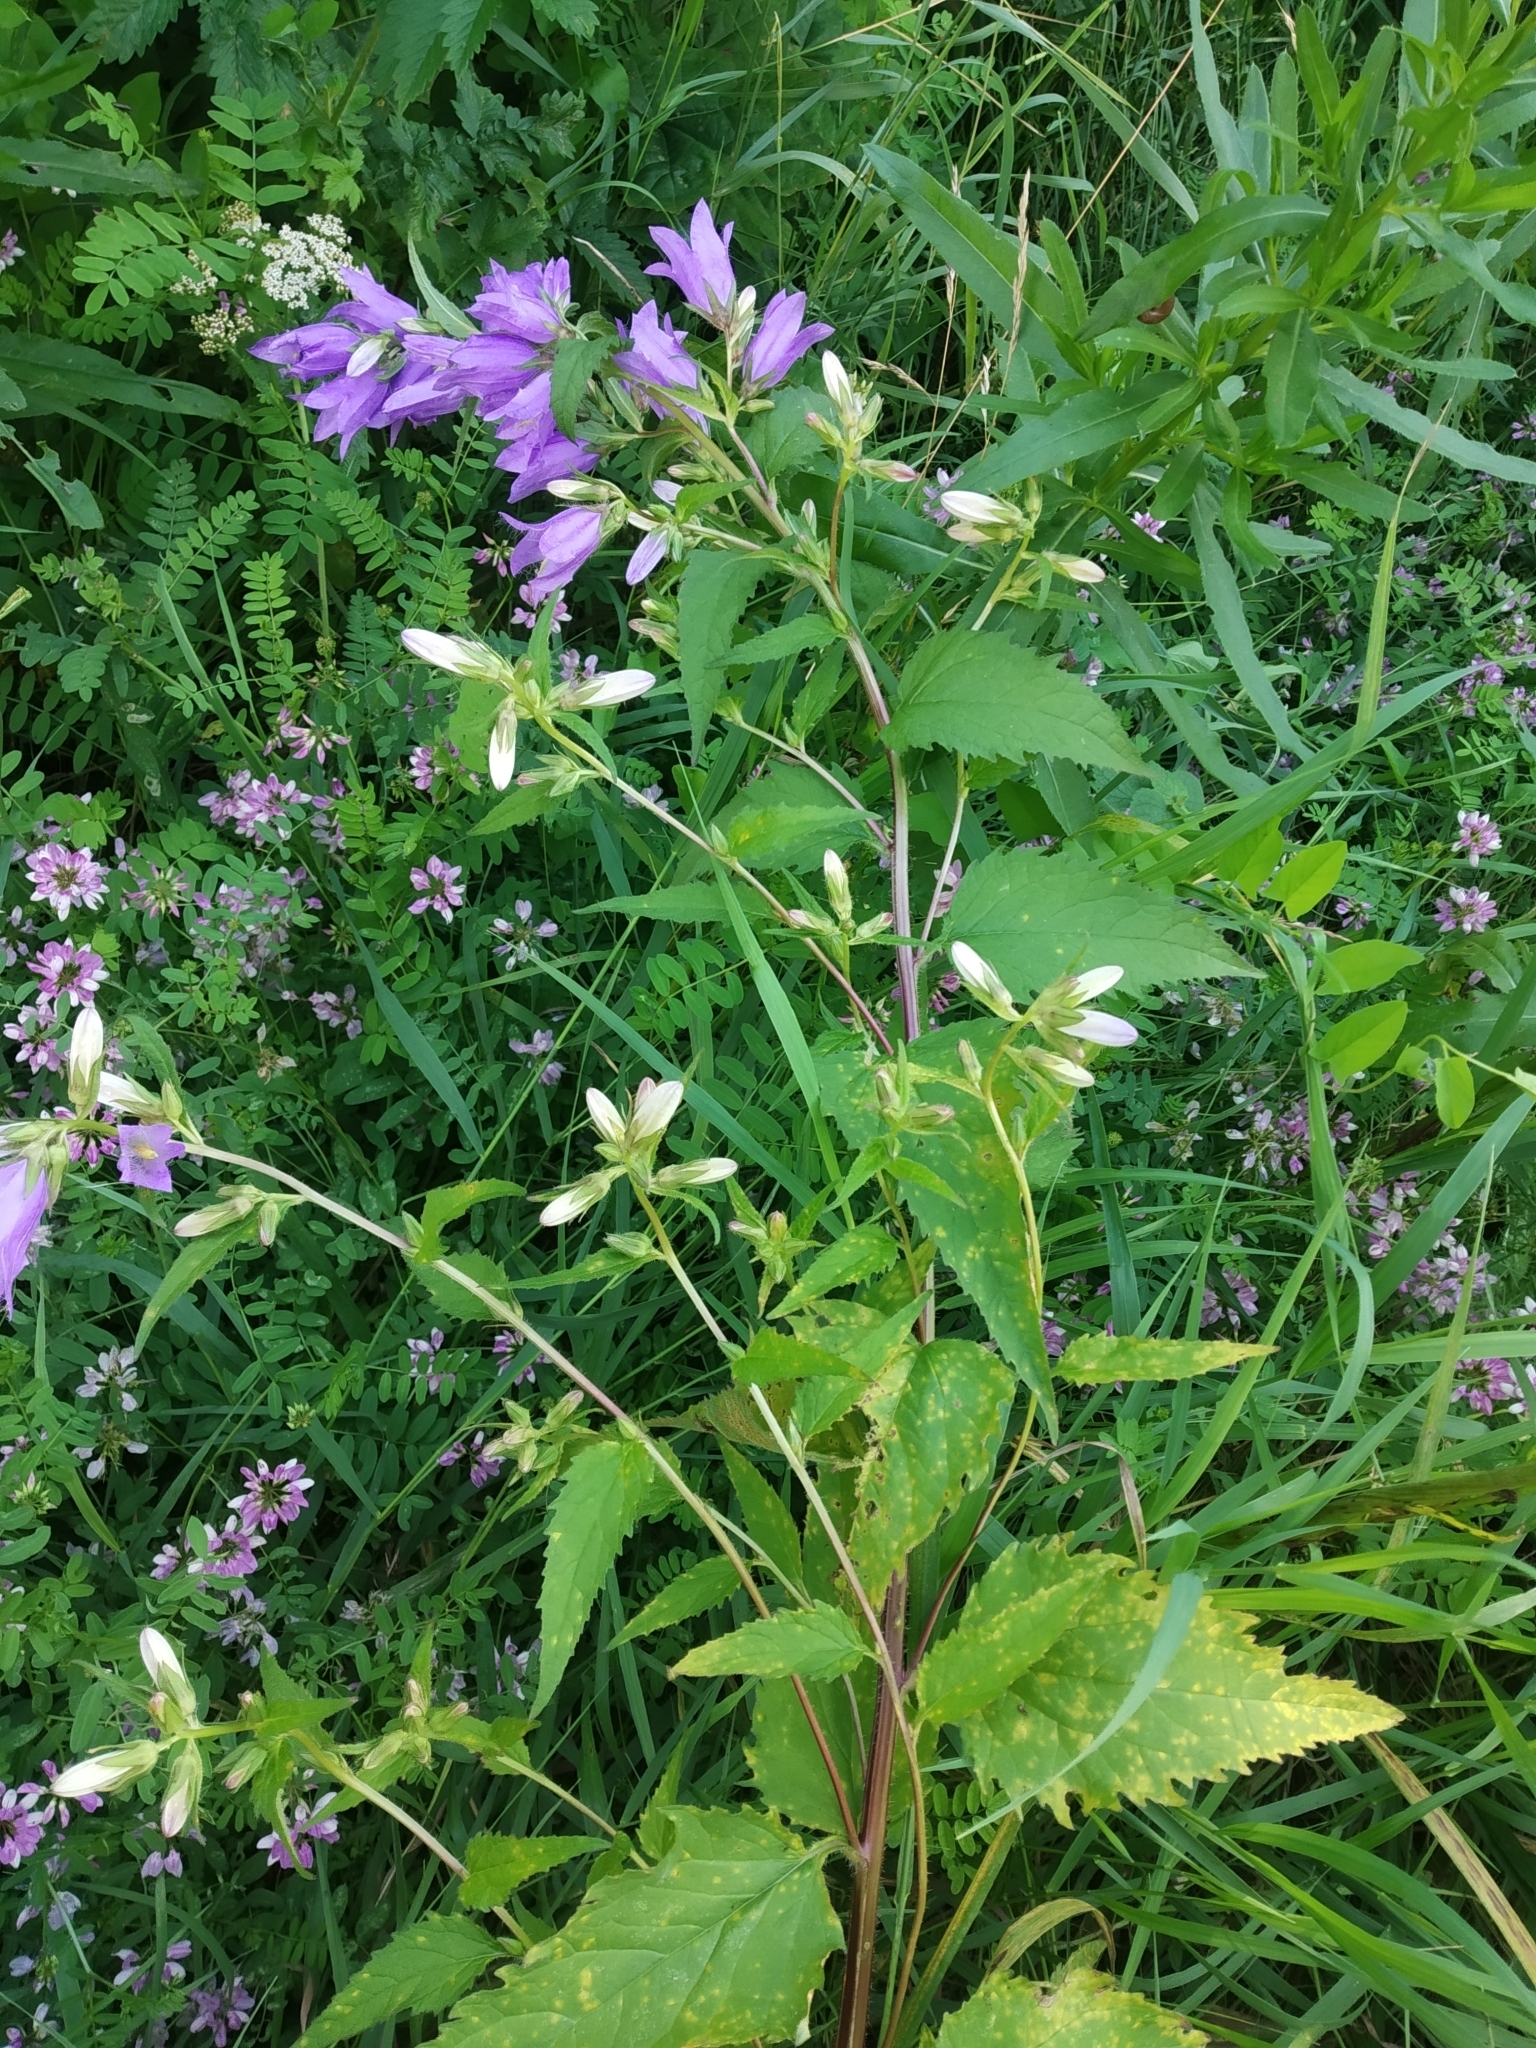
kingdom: Plantae
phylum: Tracheophyta
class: Magnoliopsida
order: Asterales
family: Campanulaceae
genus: Campanula
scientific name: Campanula trachelium
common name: Nettle-leaved bellflower
